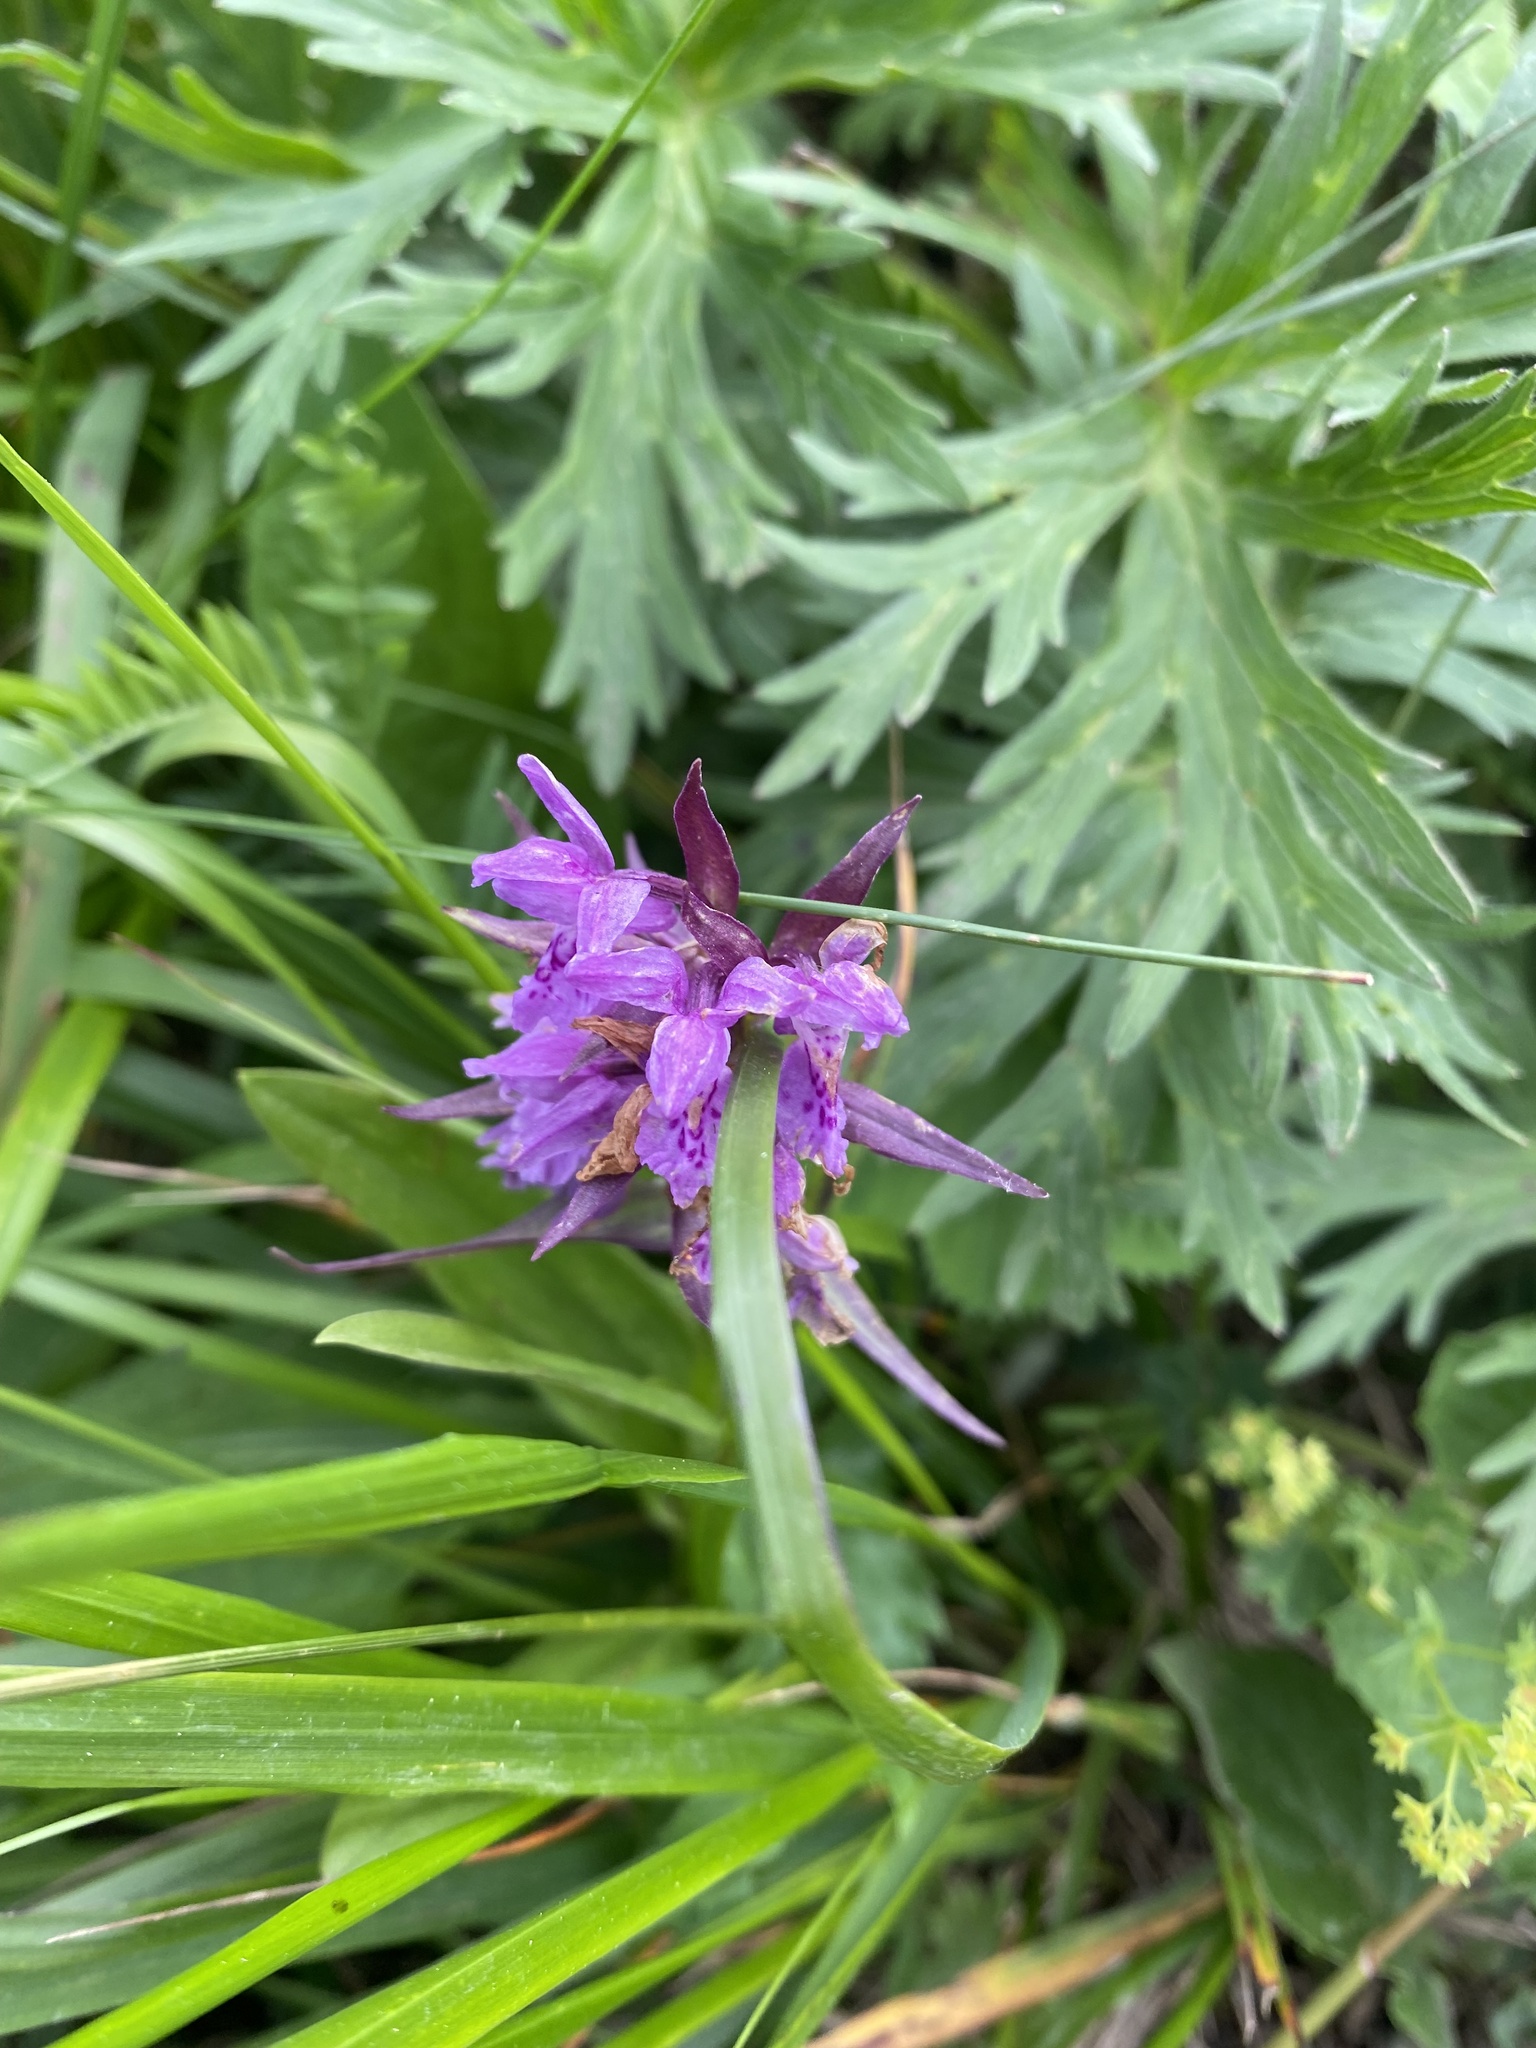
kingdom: Plantae
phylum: Tracheophyta
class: Liliopsida
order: Asparagales
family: Orchidaceae
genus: Dactylorhiza
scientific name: Dactylorhiza euxina
